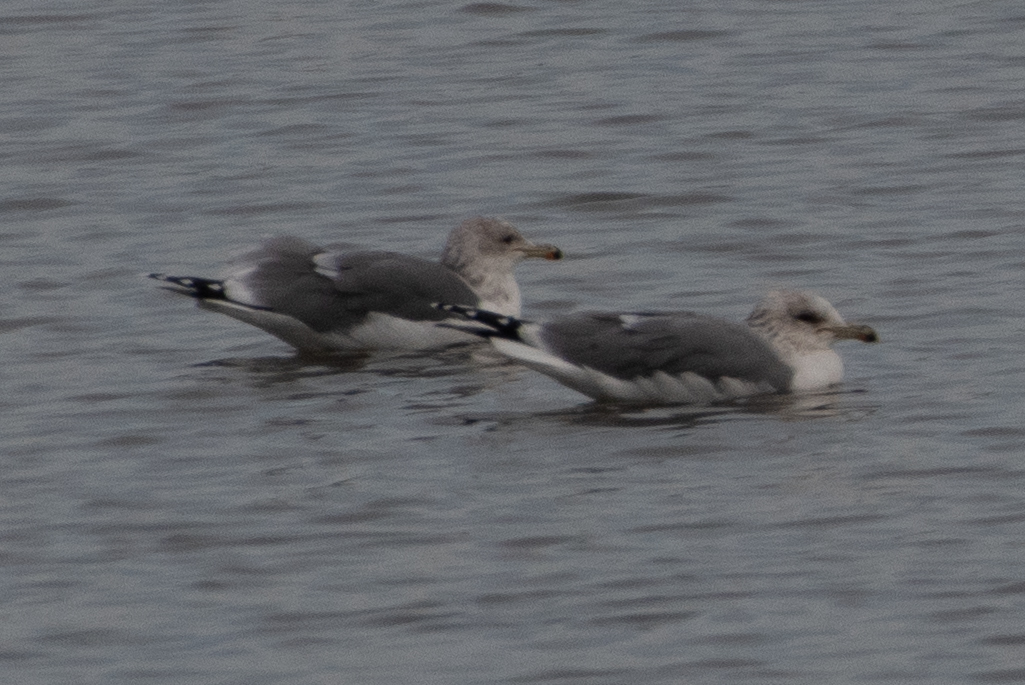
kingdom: Animalia
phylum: Chordata
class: Aves
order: Charadriiformes
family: Laridae
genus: Larus
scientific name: Larus californicus
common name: California gull
